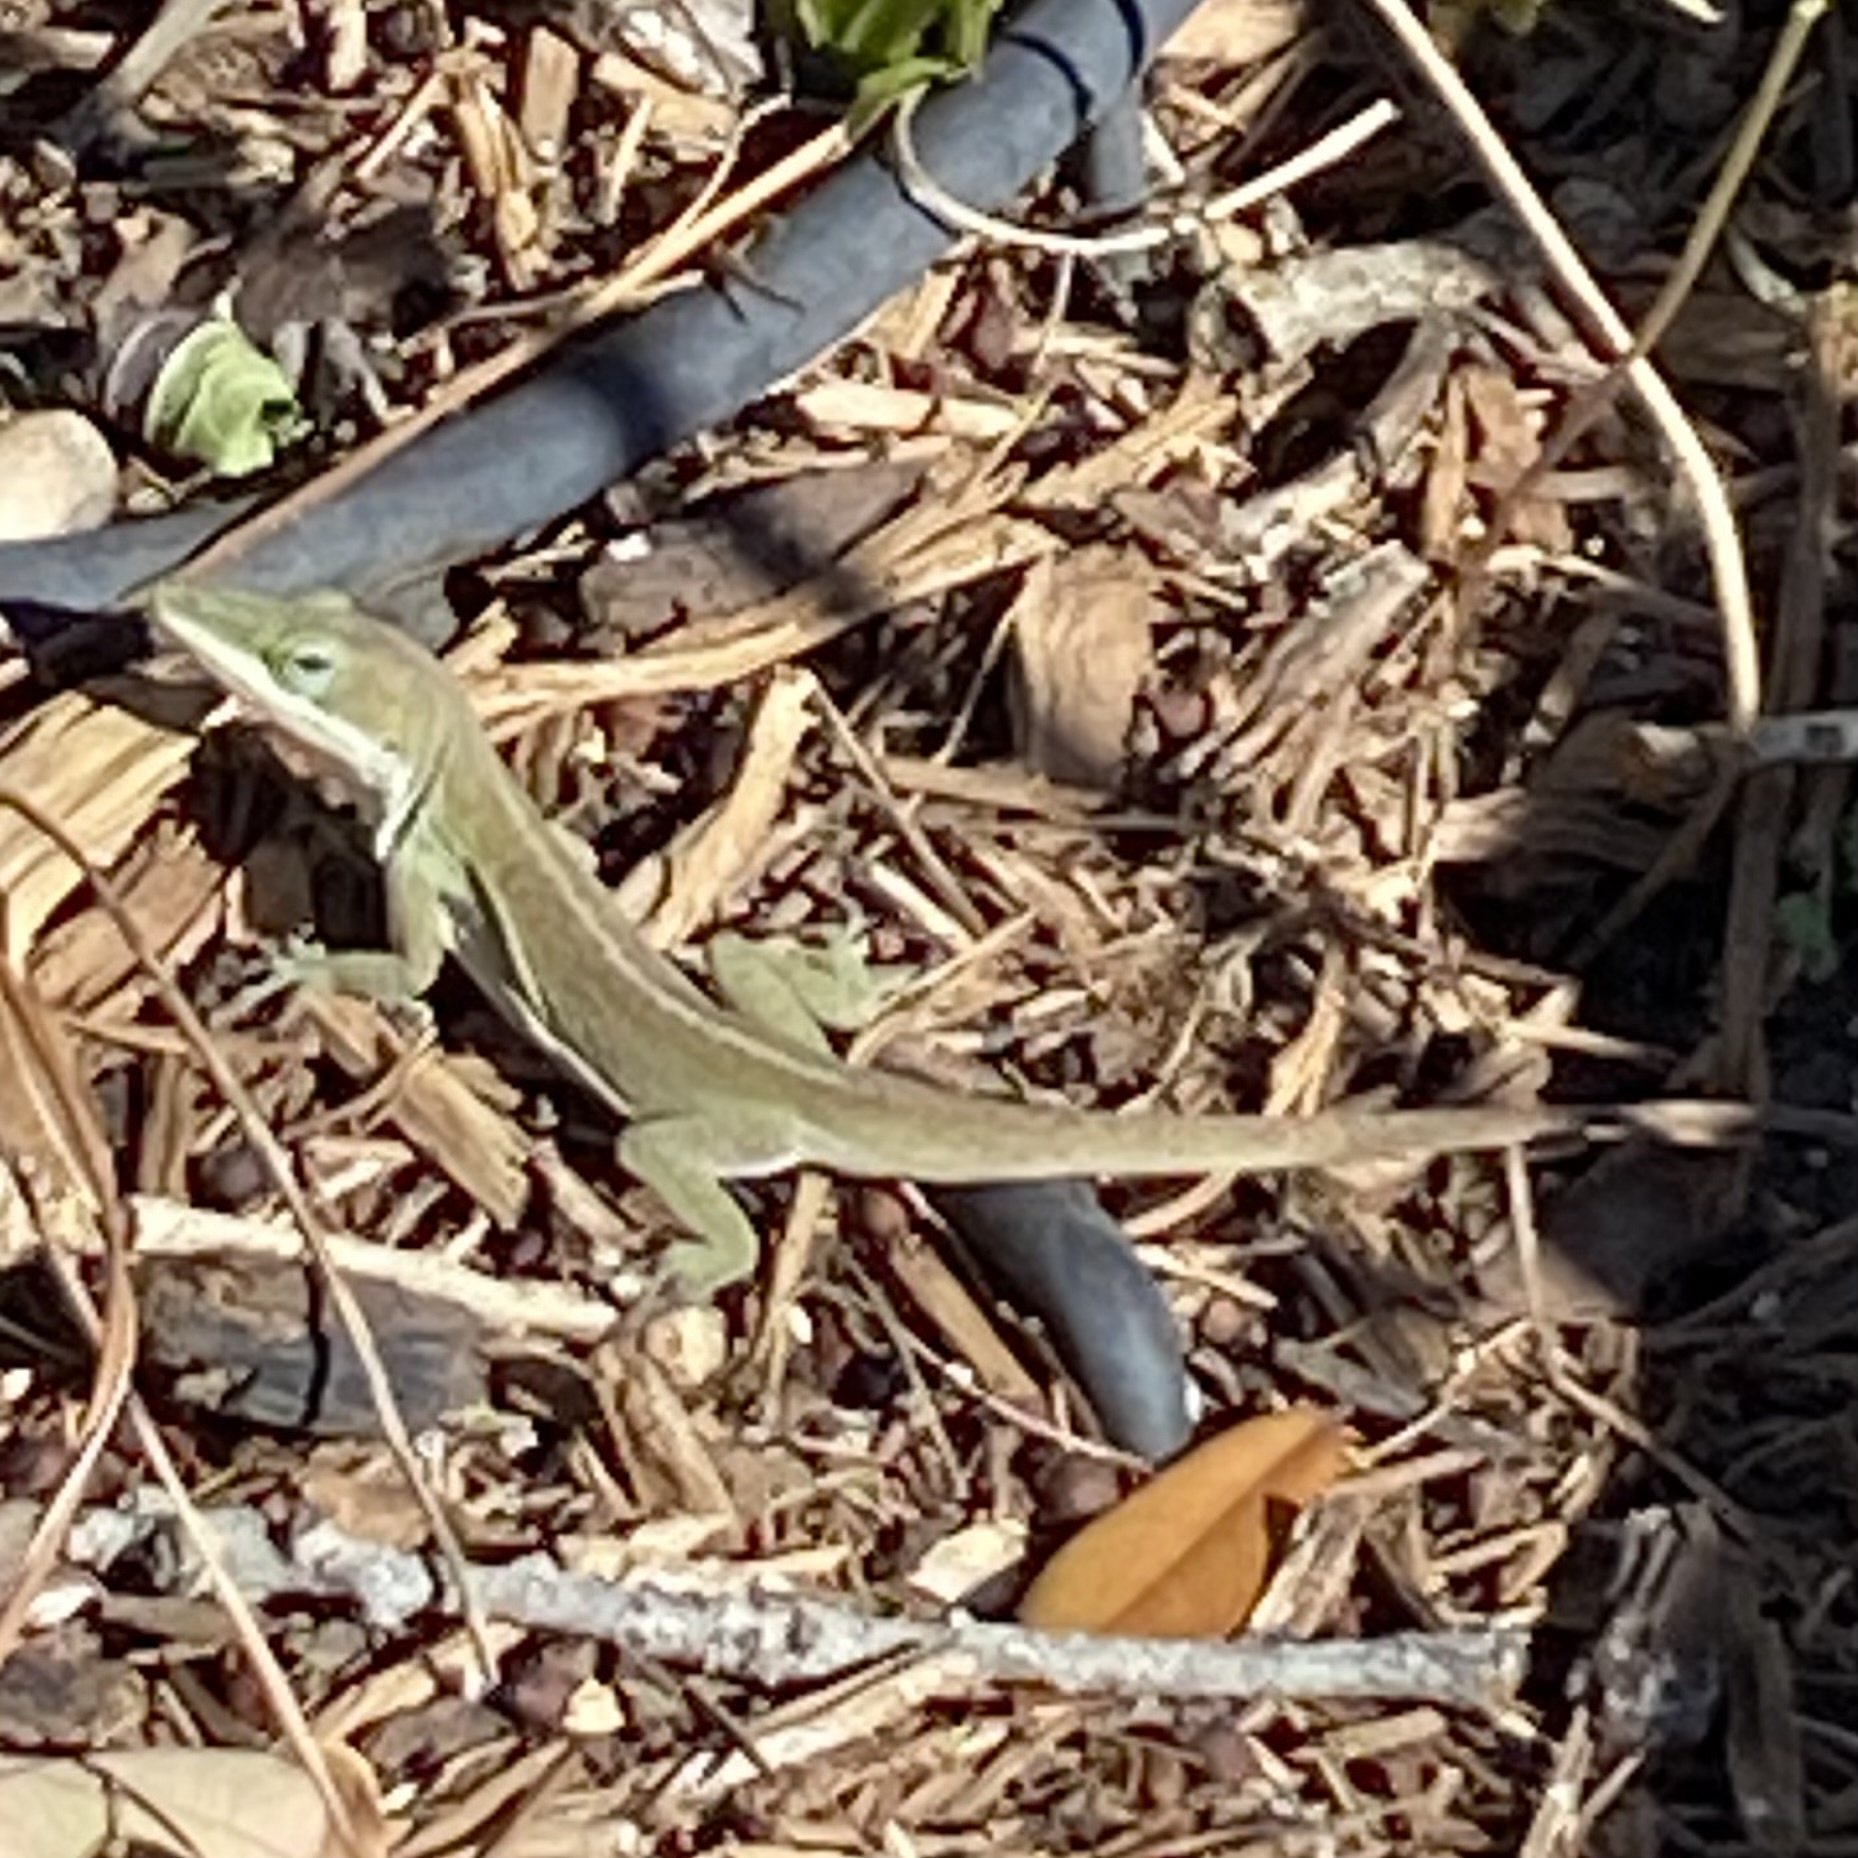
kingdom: Animalia
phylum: Chordata
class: Squamata
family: Dactyloidae
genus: Anolis
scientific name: Anolis carolinensis
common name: Green anole
